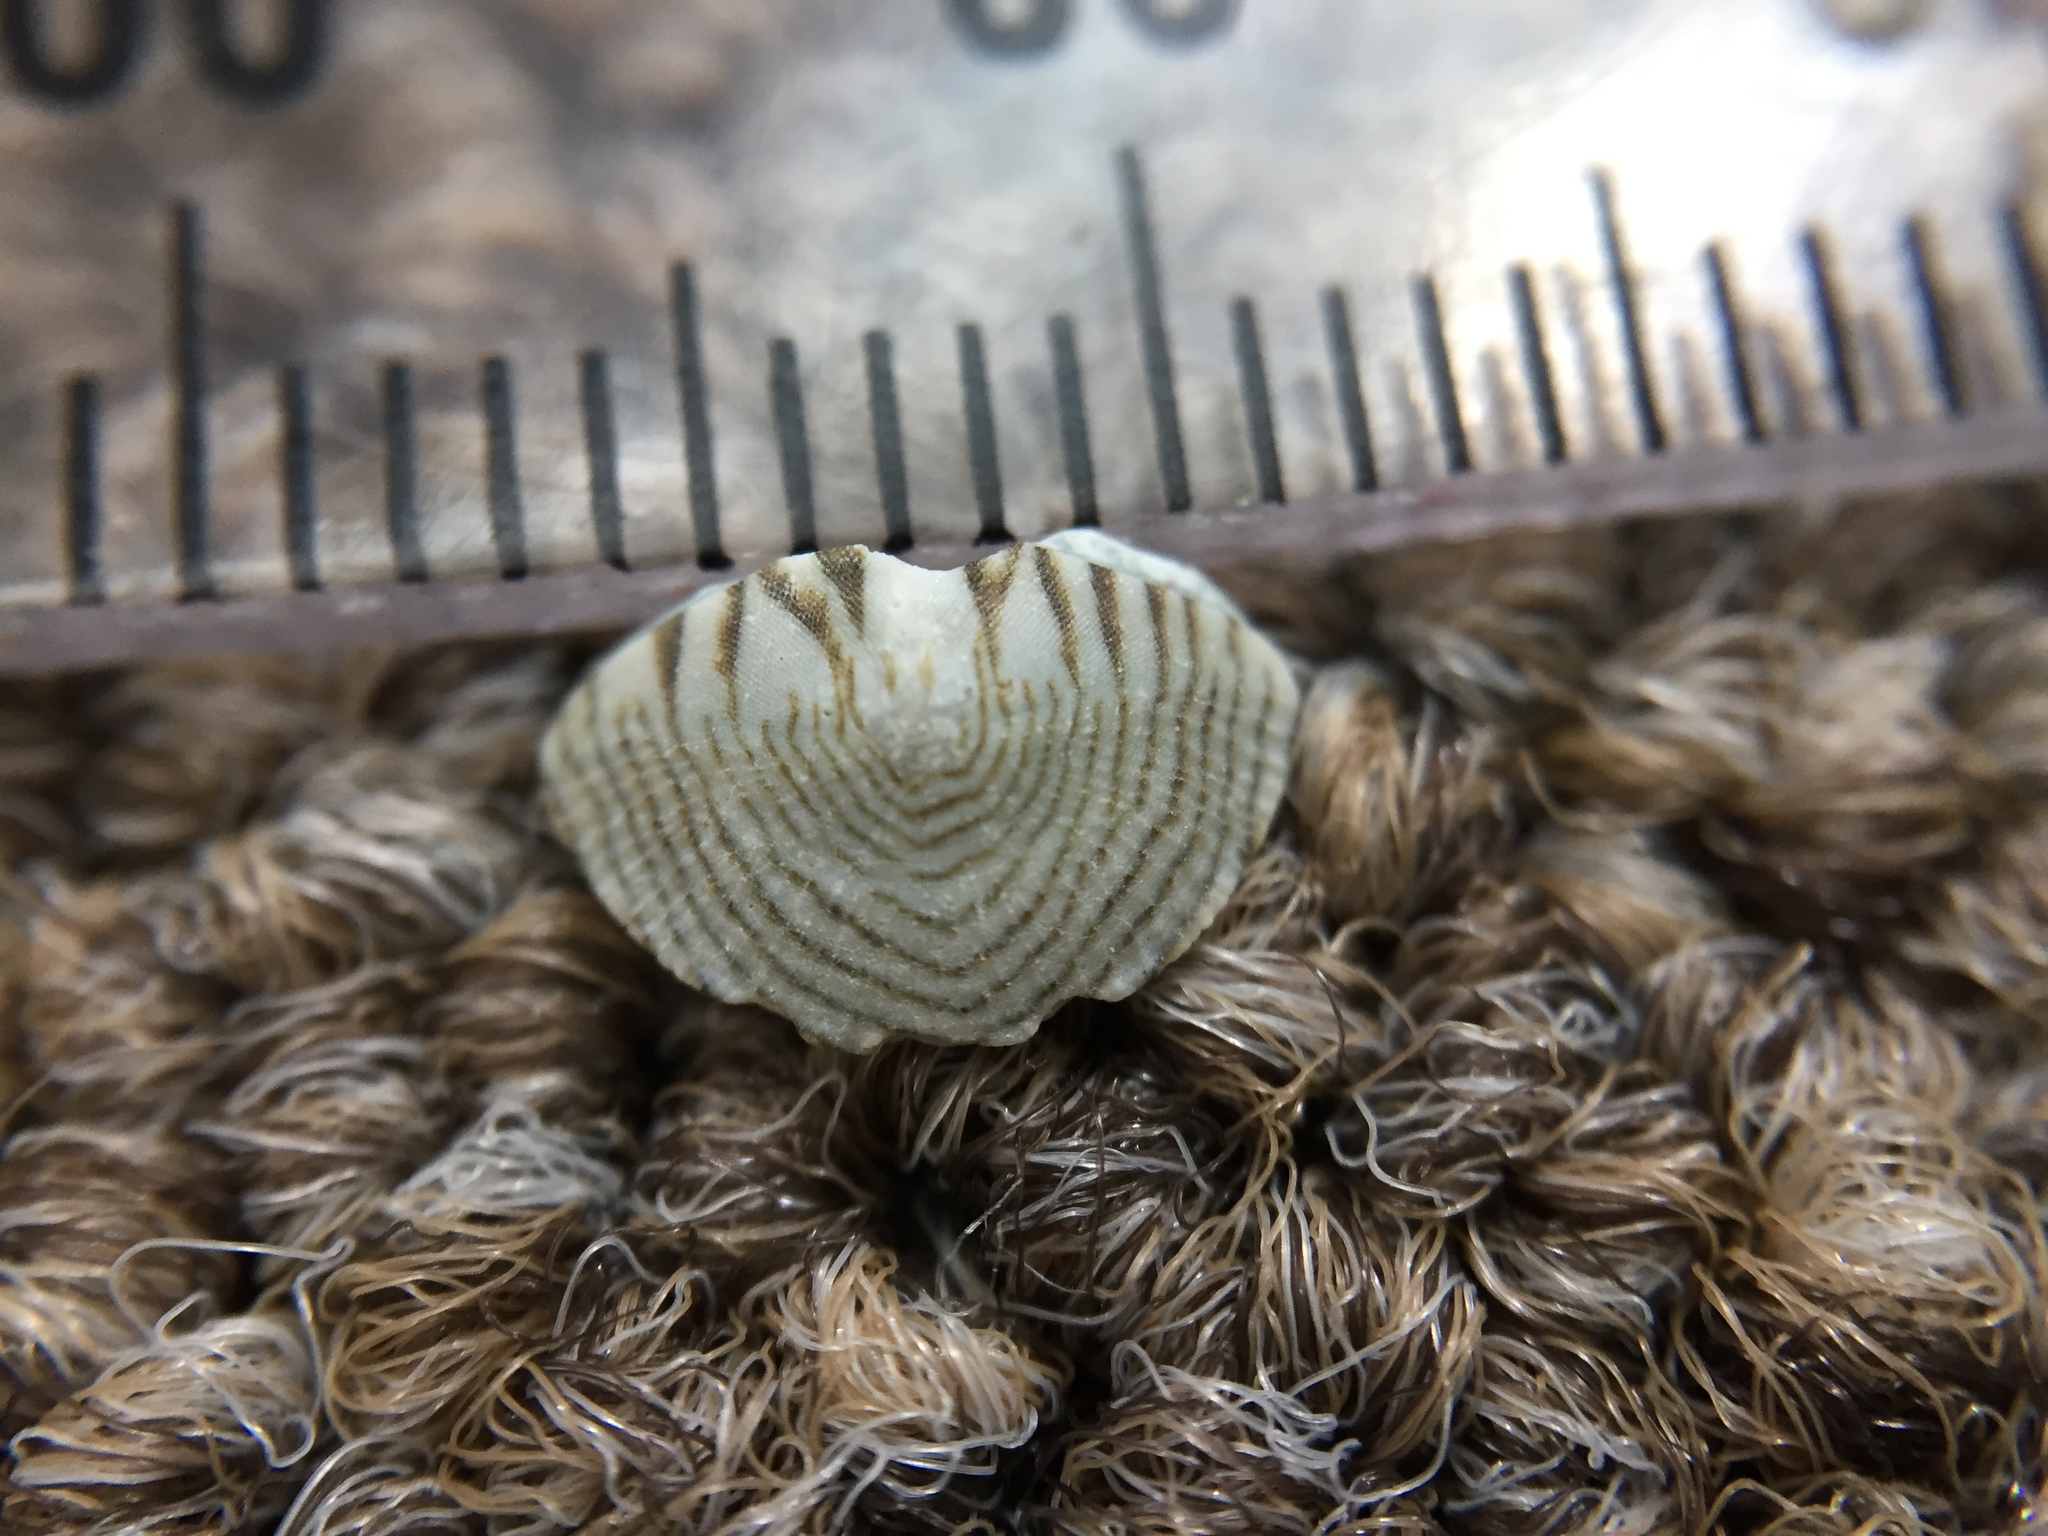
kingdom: Animalia
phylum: Mollusca
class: Polyplacophora
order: Chitonida
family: Chitonidae
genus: Onithochiton
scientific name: Onithochiton neglectus
